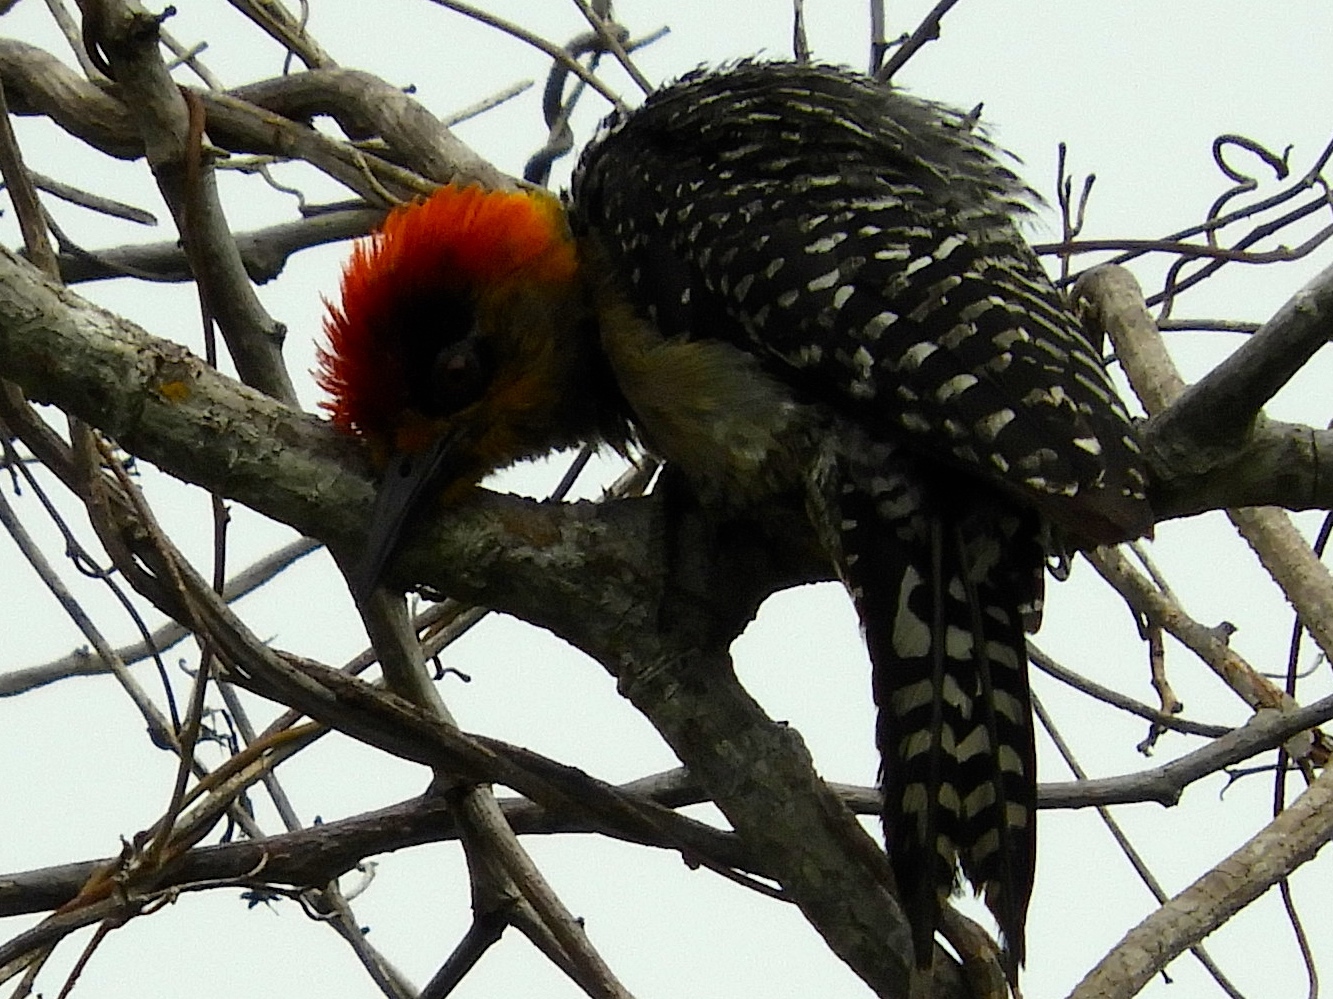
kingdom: Animalia
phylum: Chordata
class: Aves
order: Piciformes
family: Picidae
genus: Melanerpes
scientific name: Melanerpes chrysogenys
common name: Golden-cheeked woodpecker
